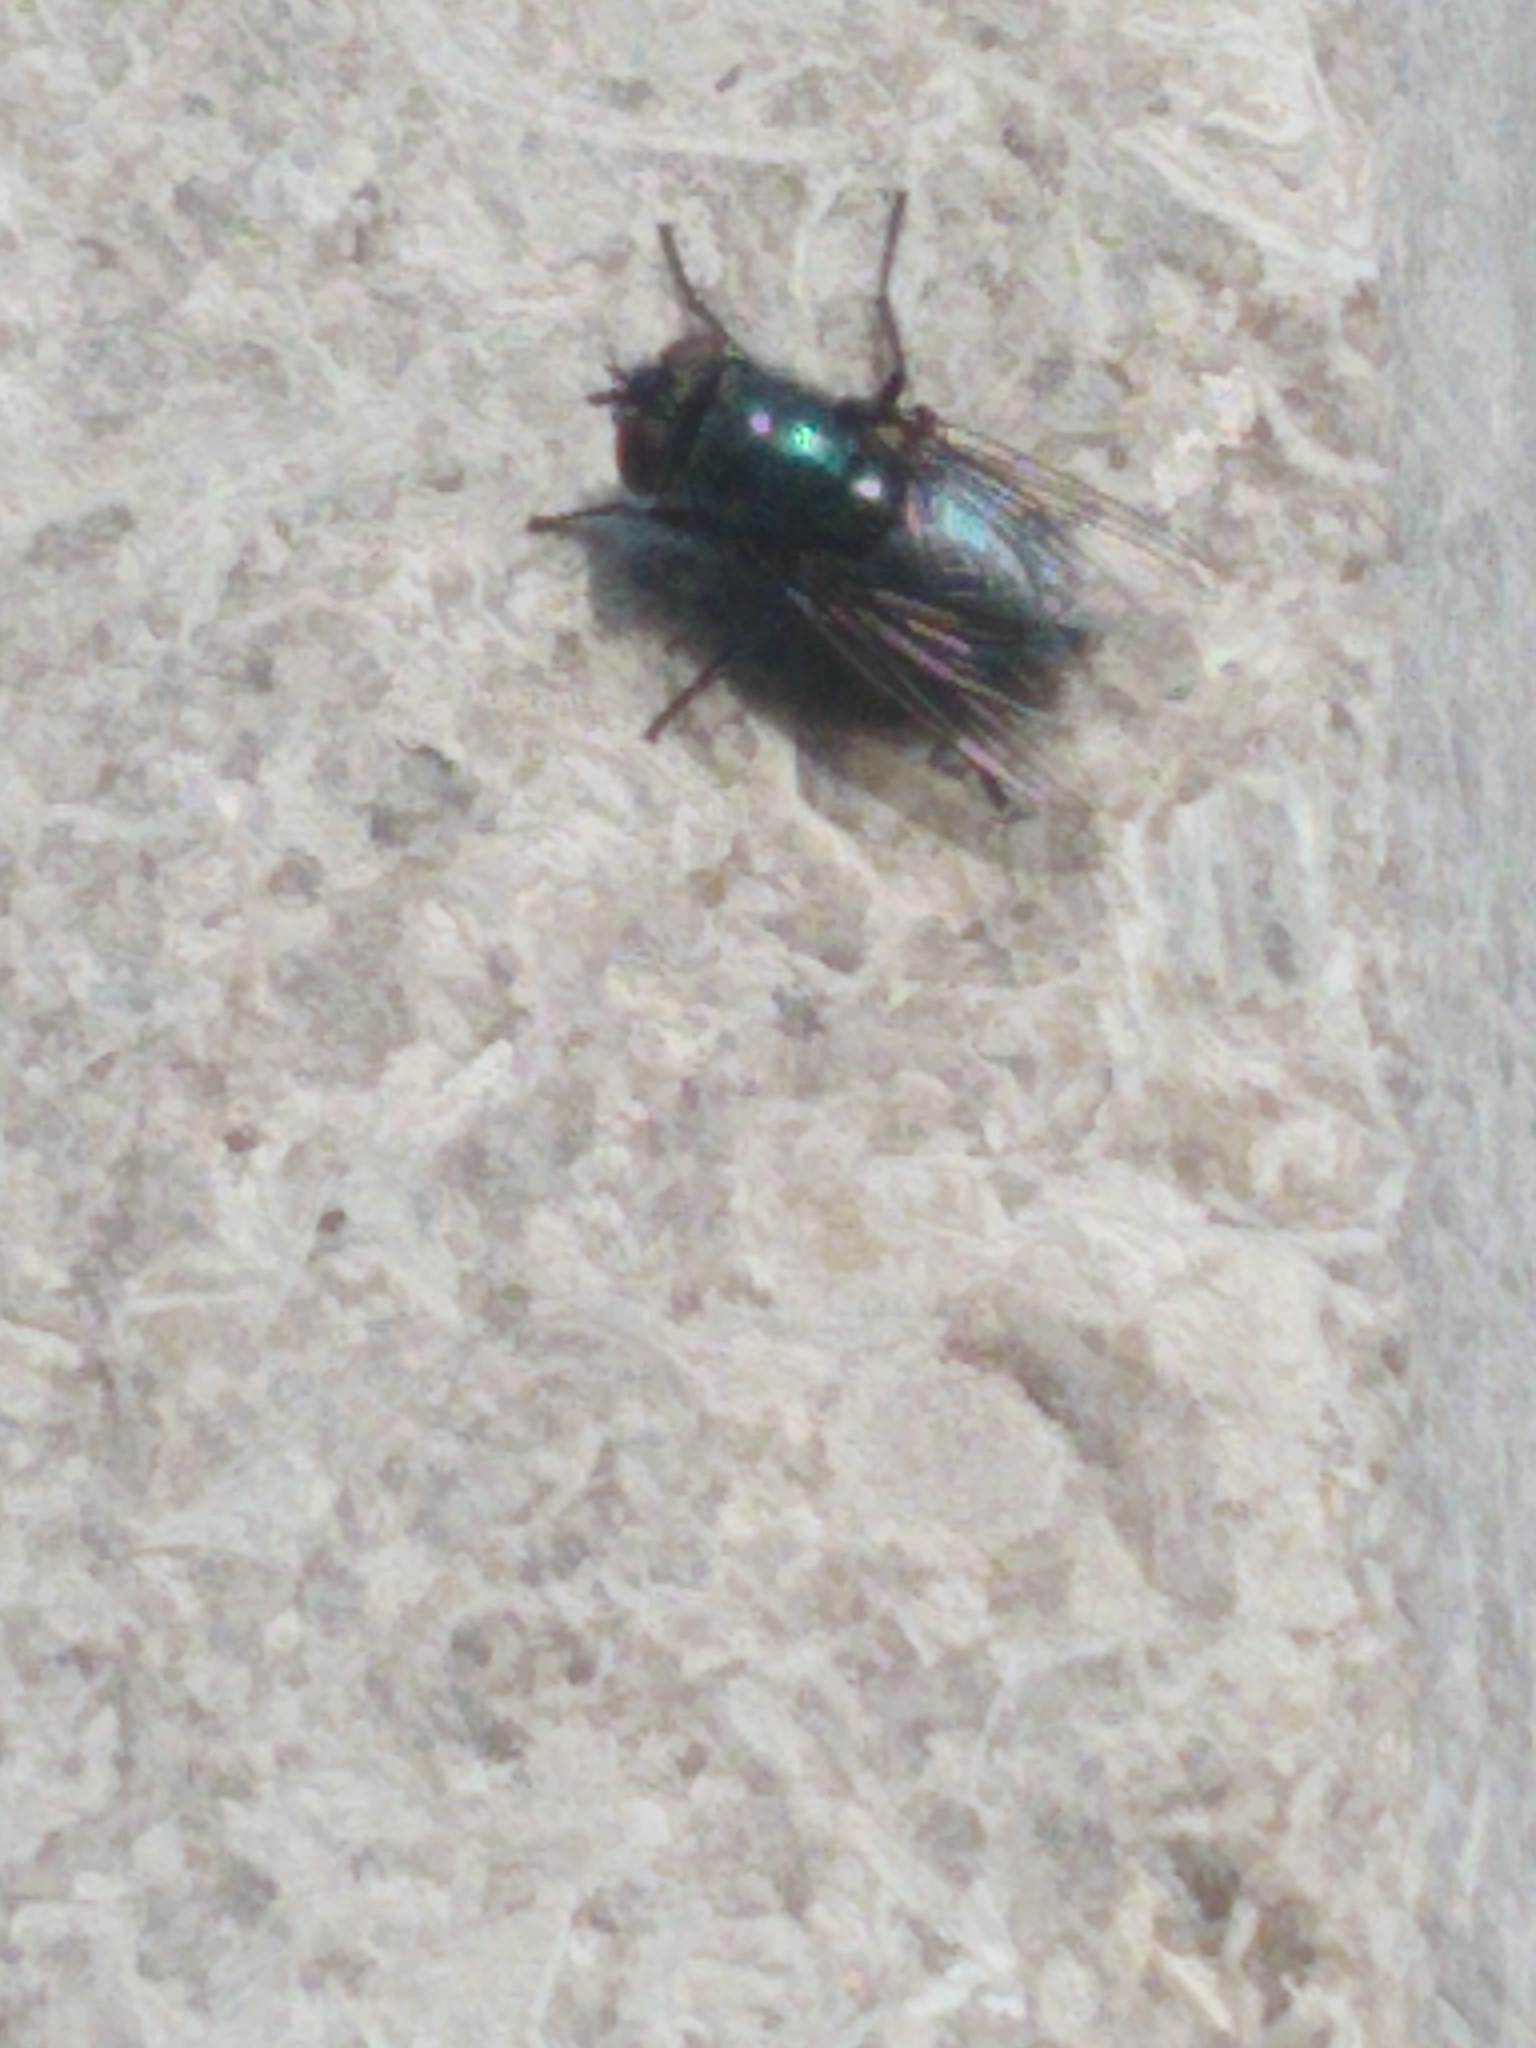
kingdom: Animalia
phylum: Arthropoda
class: Insecta
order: Diptera
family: Calliphoridae
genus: Phormia
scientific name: Phormia regina
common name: Black blow fly
